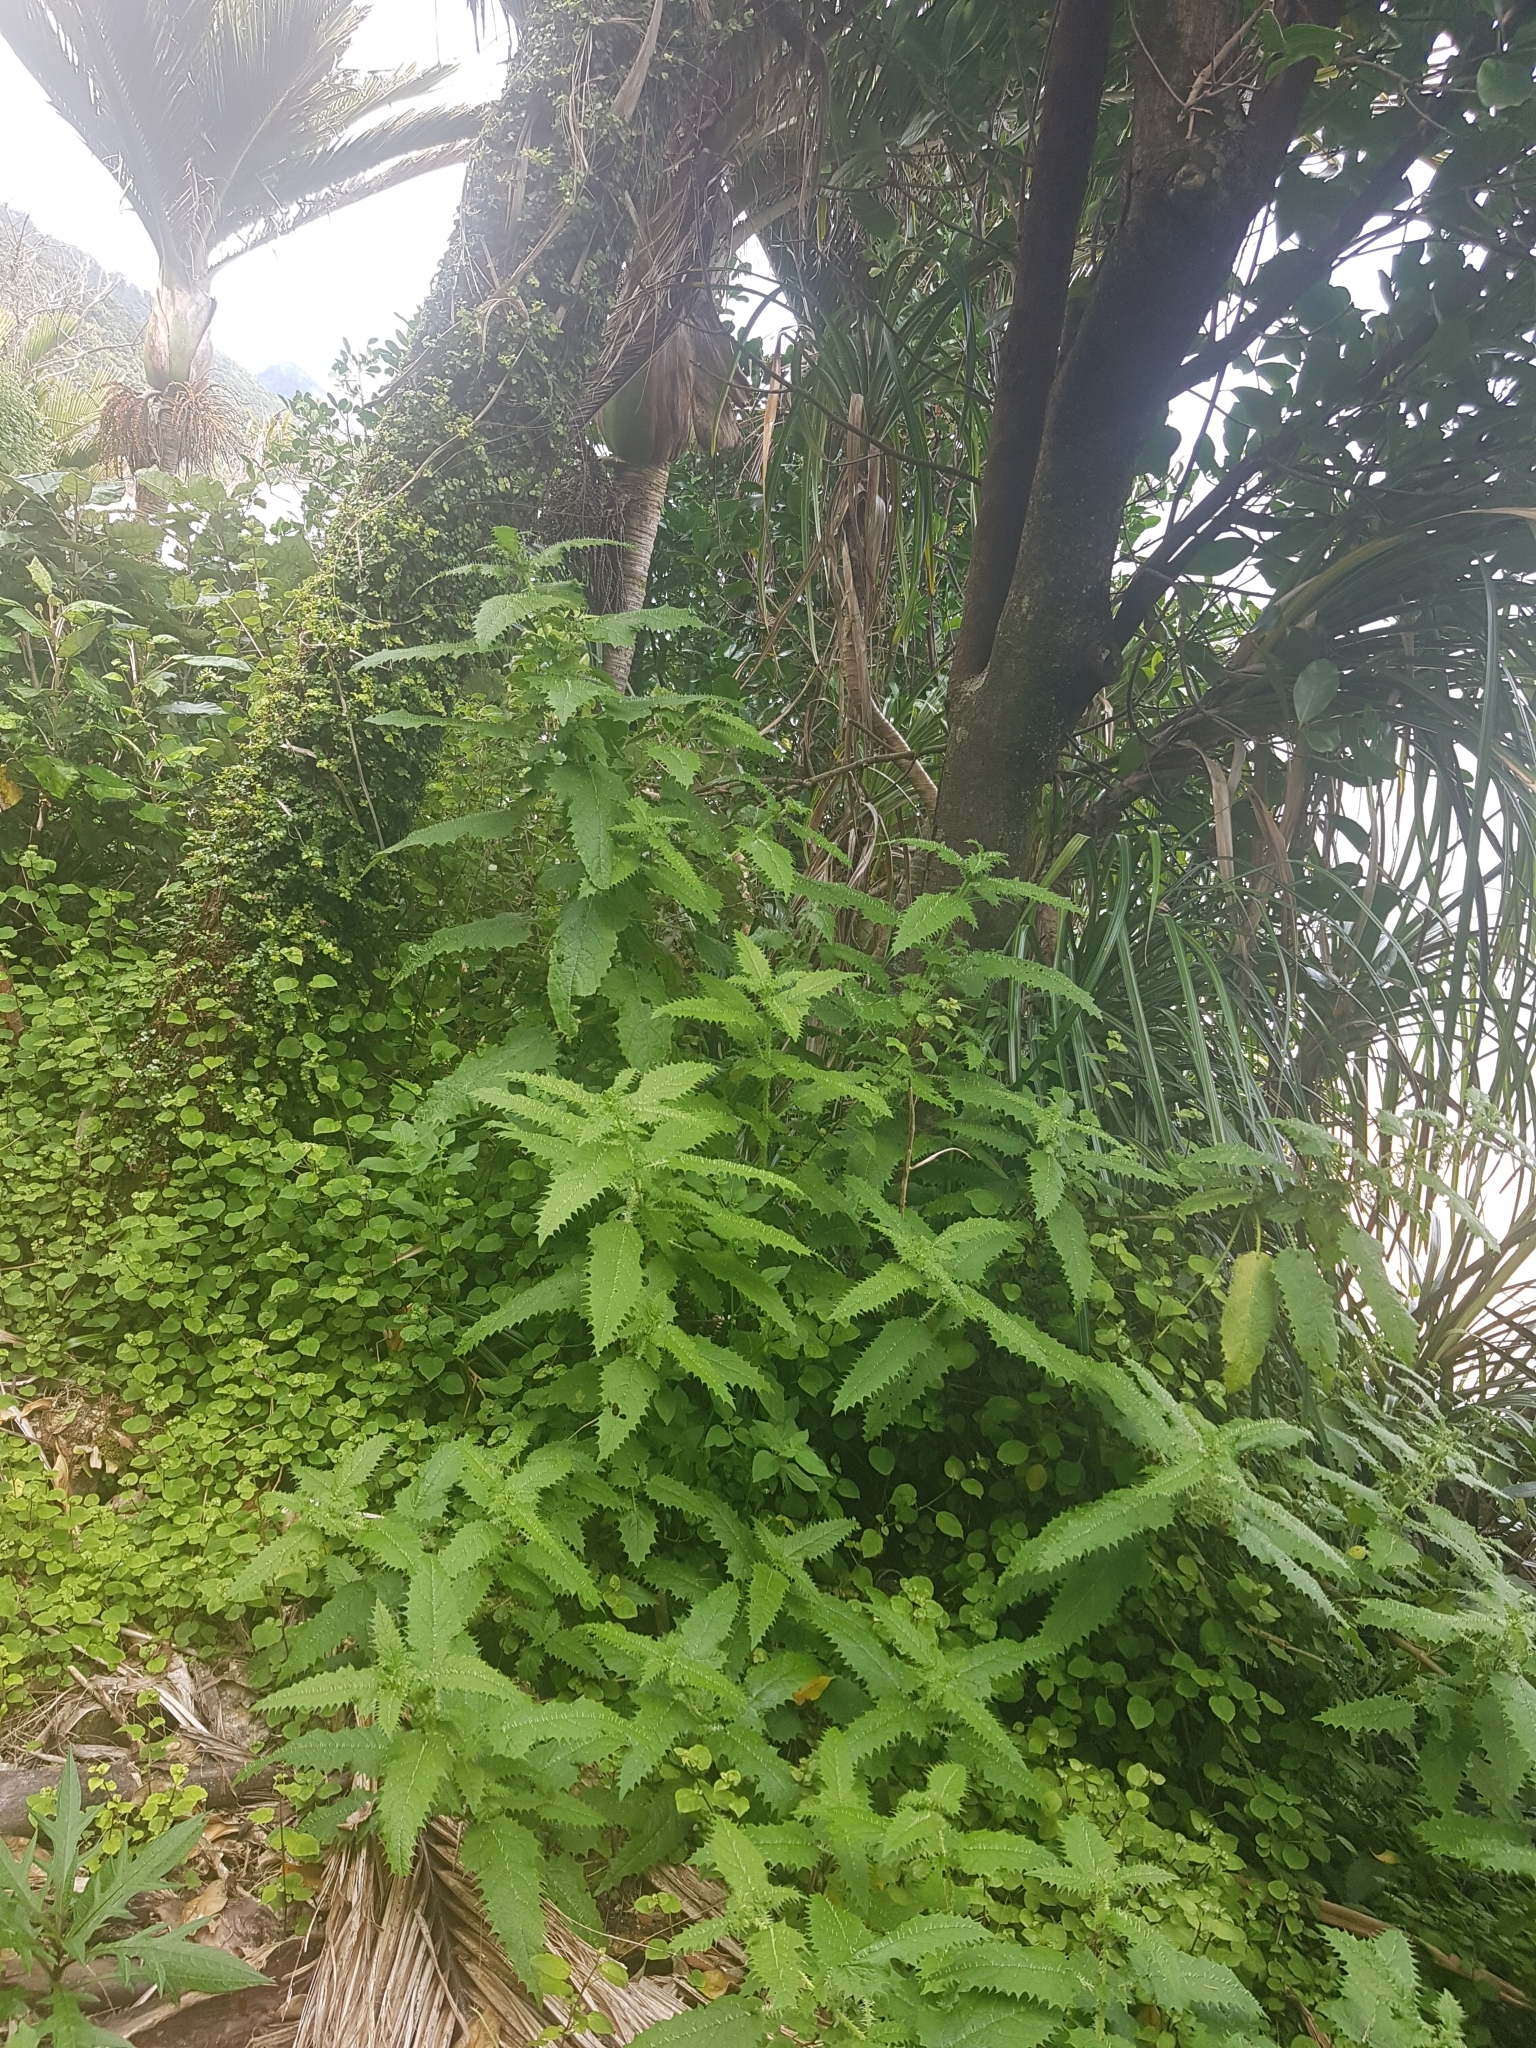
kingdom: Plantae
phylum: Tracheophyta
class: Magnoliopsida
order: Rosales
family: Urticaceae
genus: Urtica
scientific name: Urtica ferox
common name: Tree nettle
